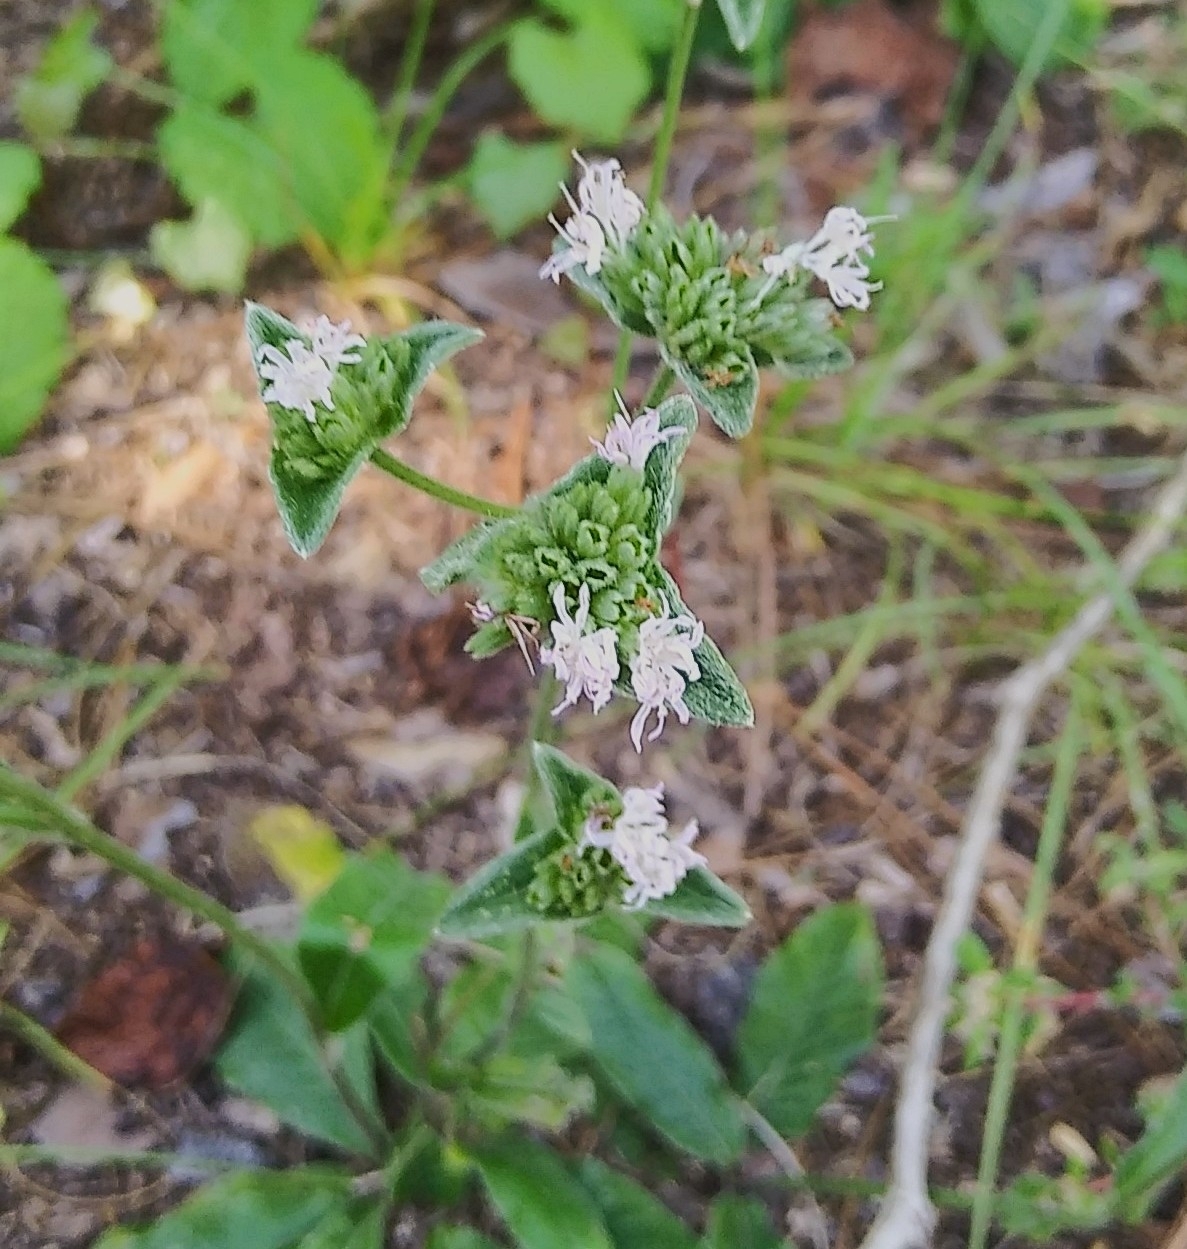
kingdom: Plantae
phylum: Tracheophyta
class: Magnoliopsida
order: Asterales
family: Asteraceae
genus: Elephantopus
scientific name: Elephantopus elatus
